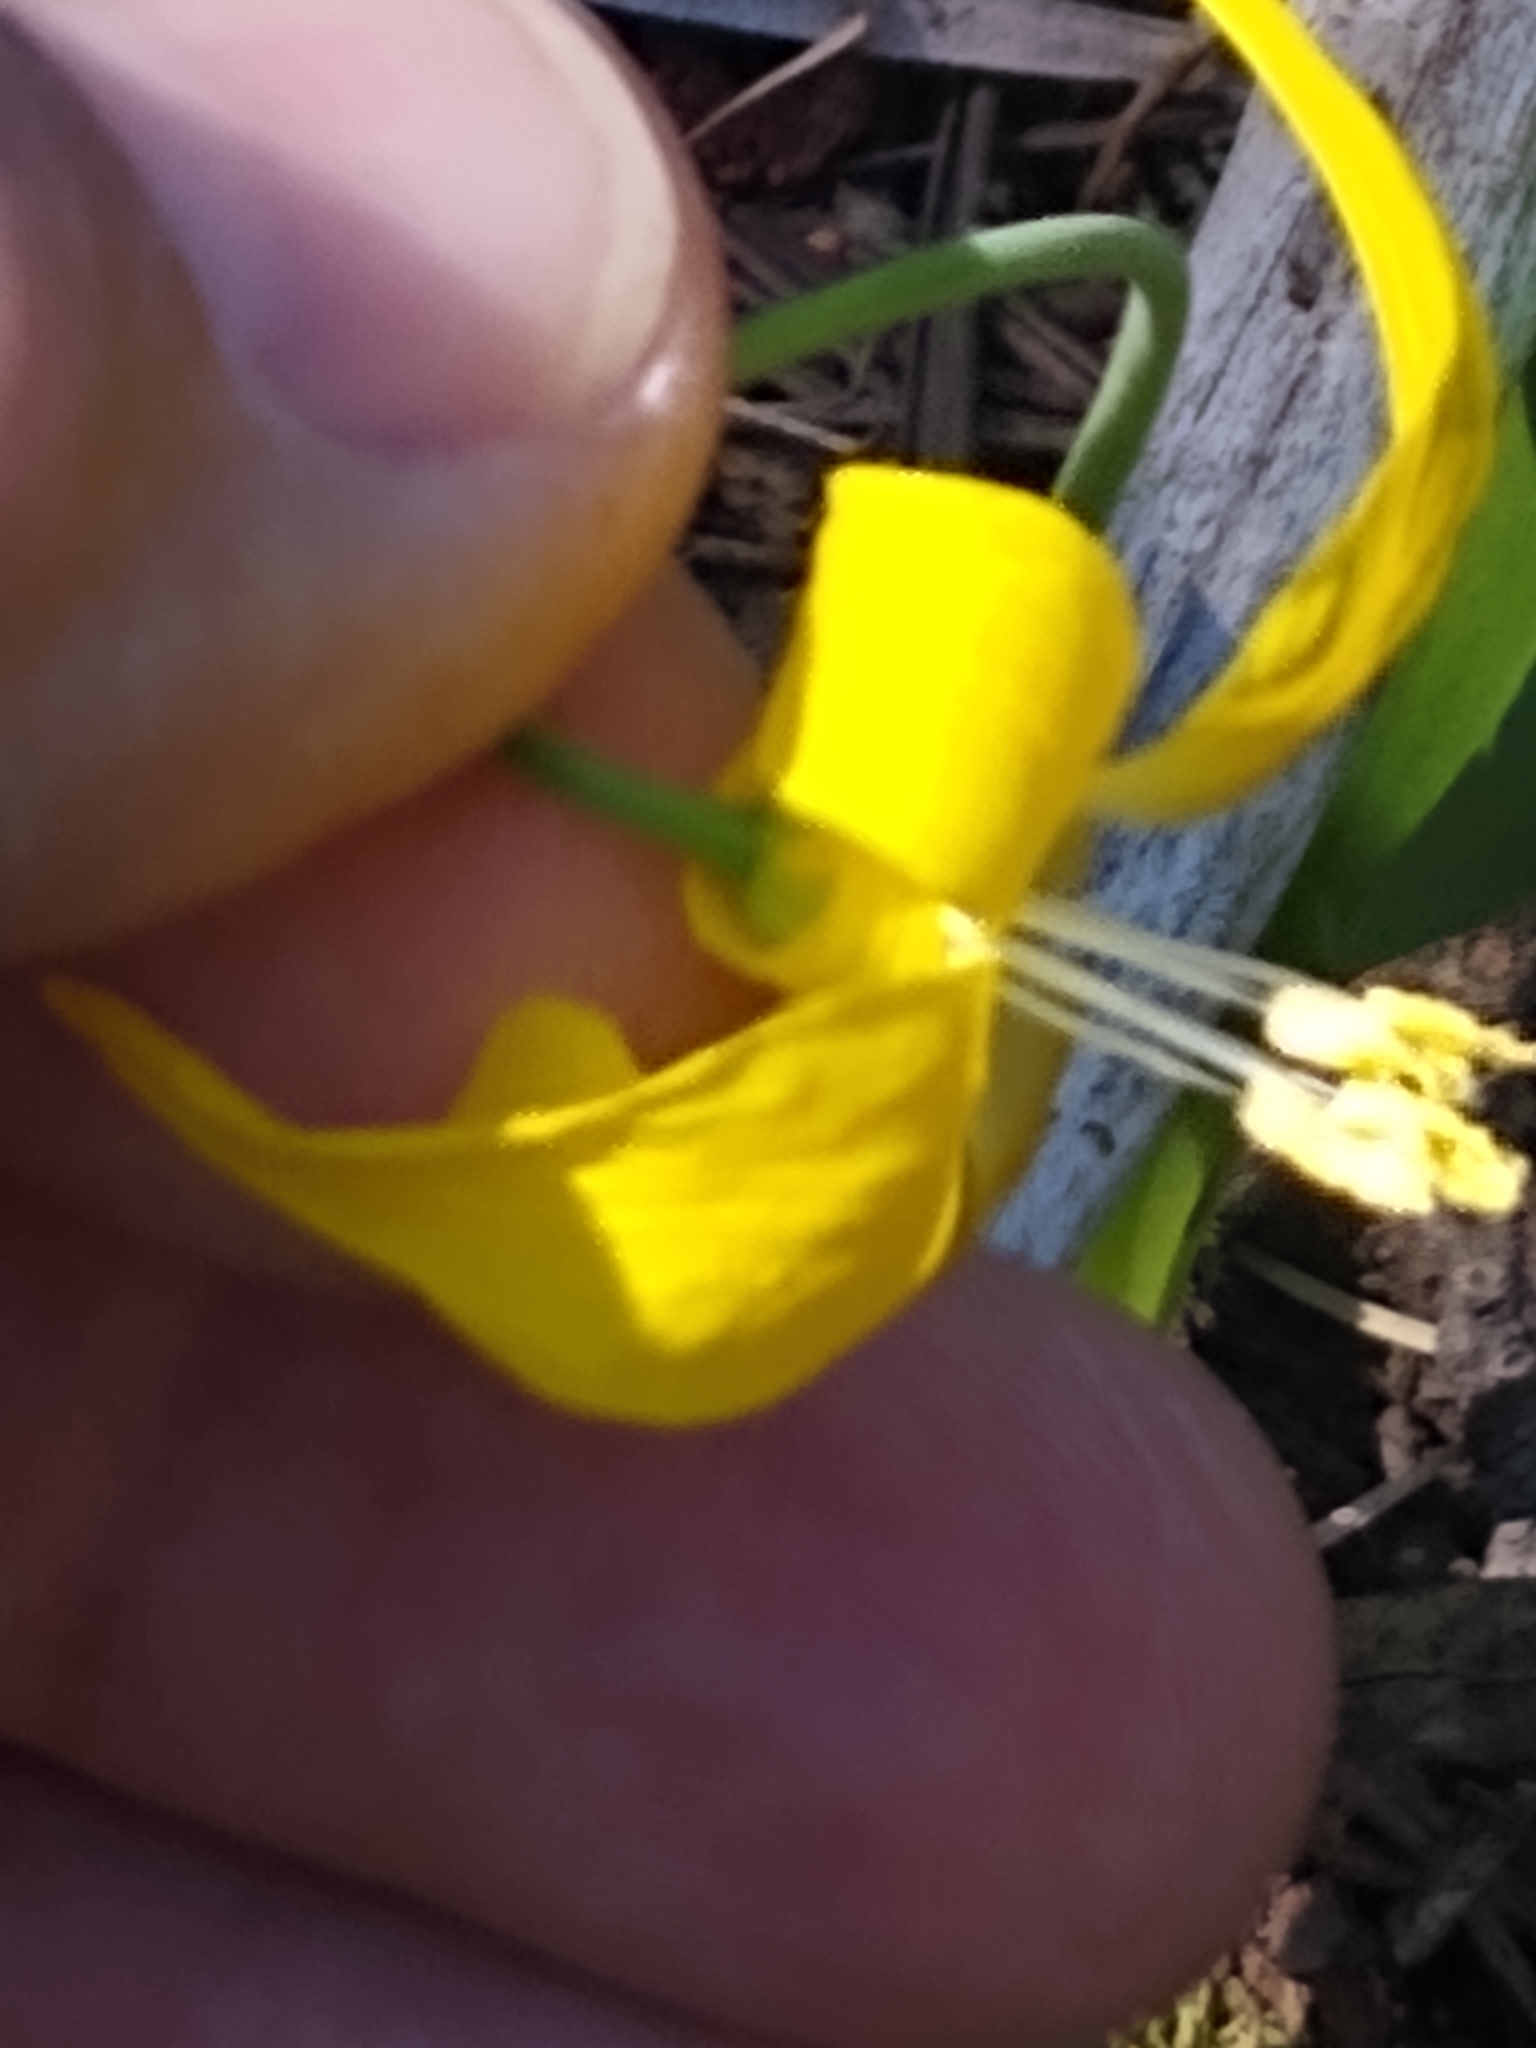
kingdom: Plantae
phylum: Tracheophyta
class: Liliopsida
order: Liliales
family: Liliaceae
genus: Erythronium
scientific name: Erythronium grandiflorum
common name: Avalanche-lily
